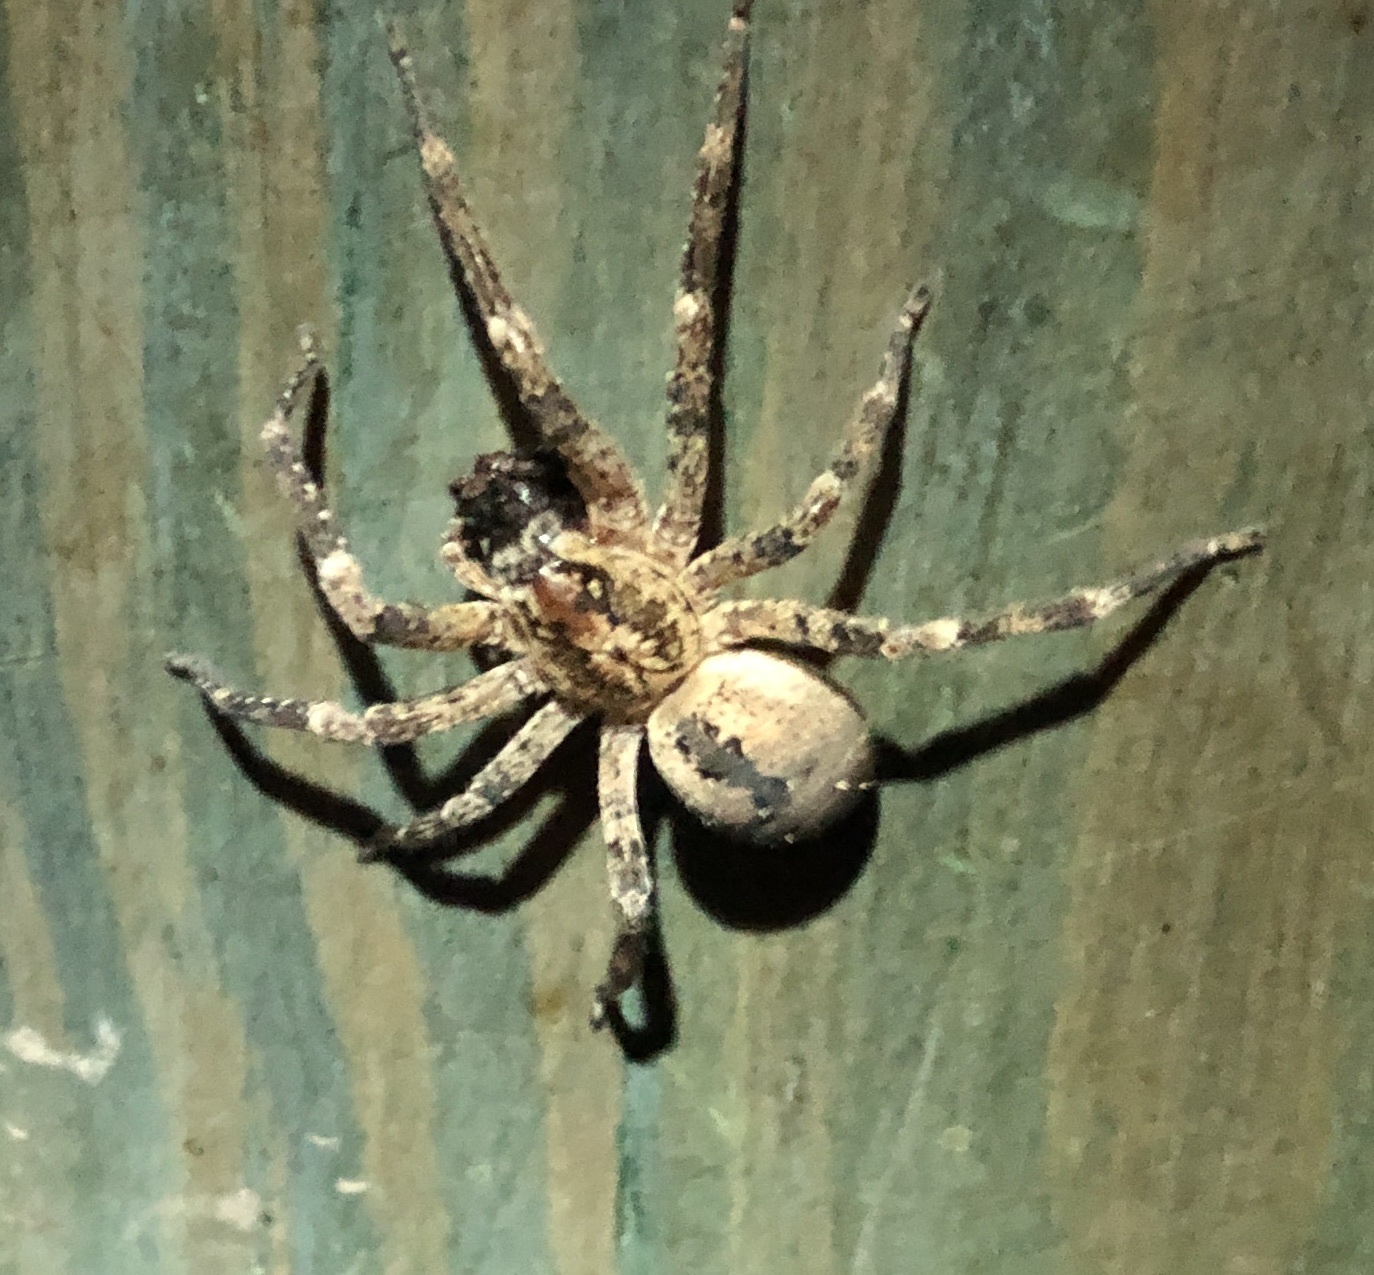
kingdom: Animalia
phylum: Arthropoda
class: Arachnida
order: Araneae
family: Zoropsidae
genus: Zoropsis
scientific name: Zoropsis spinimana
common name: Zoropsid spider
